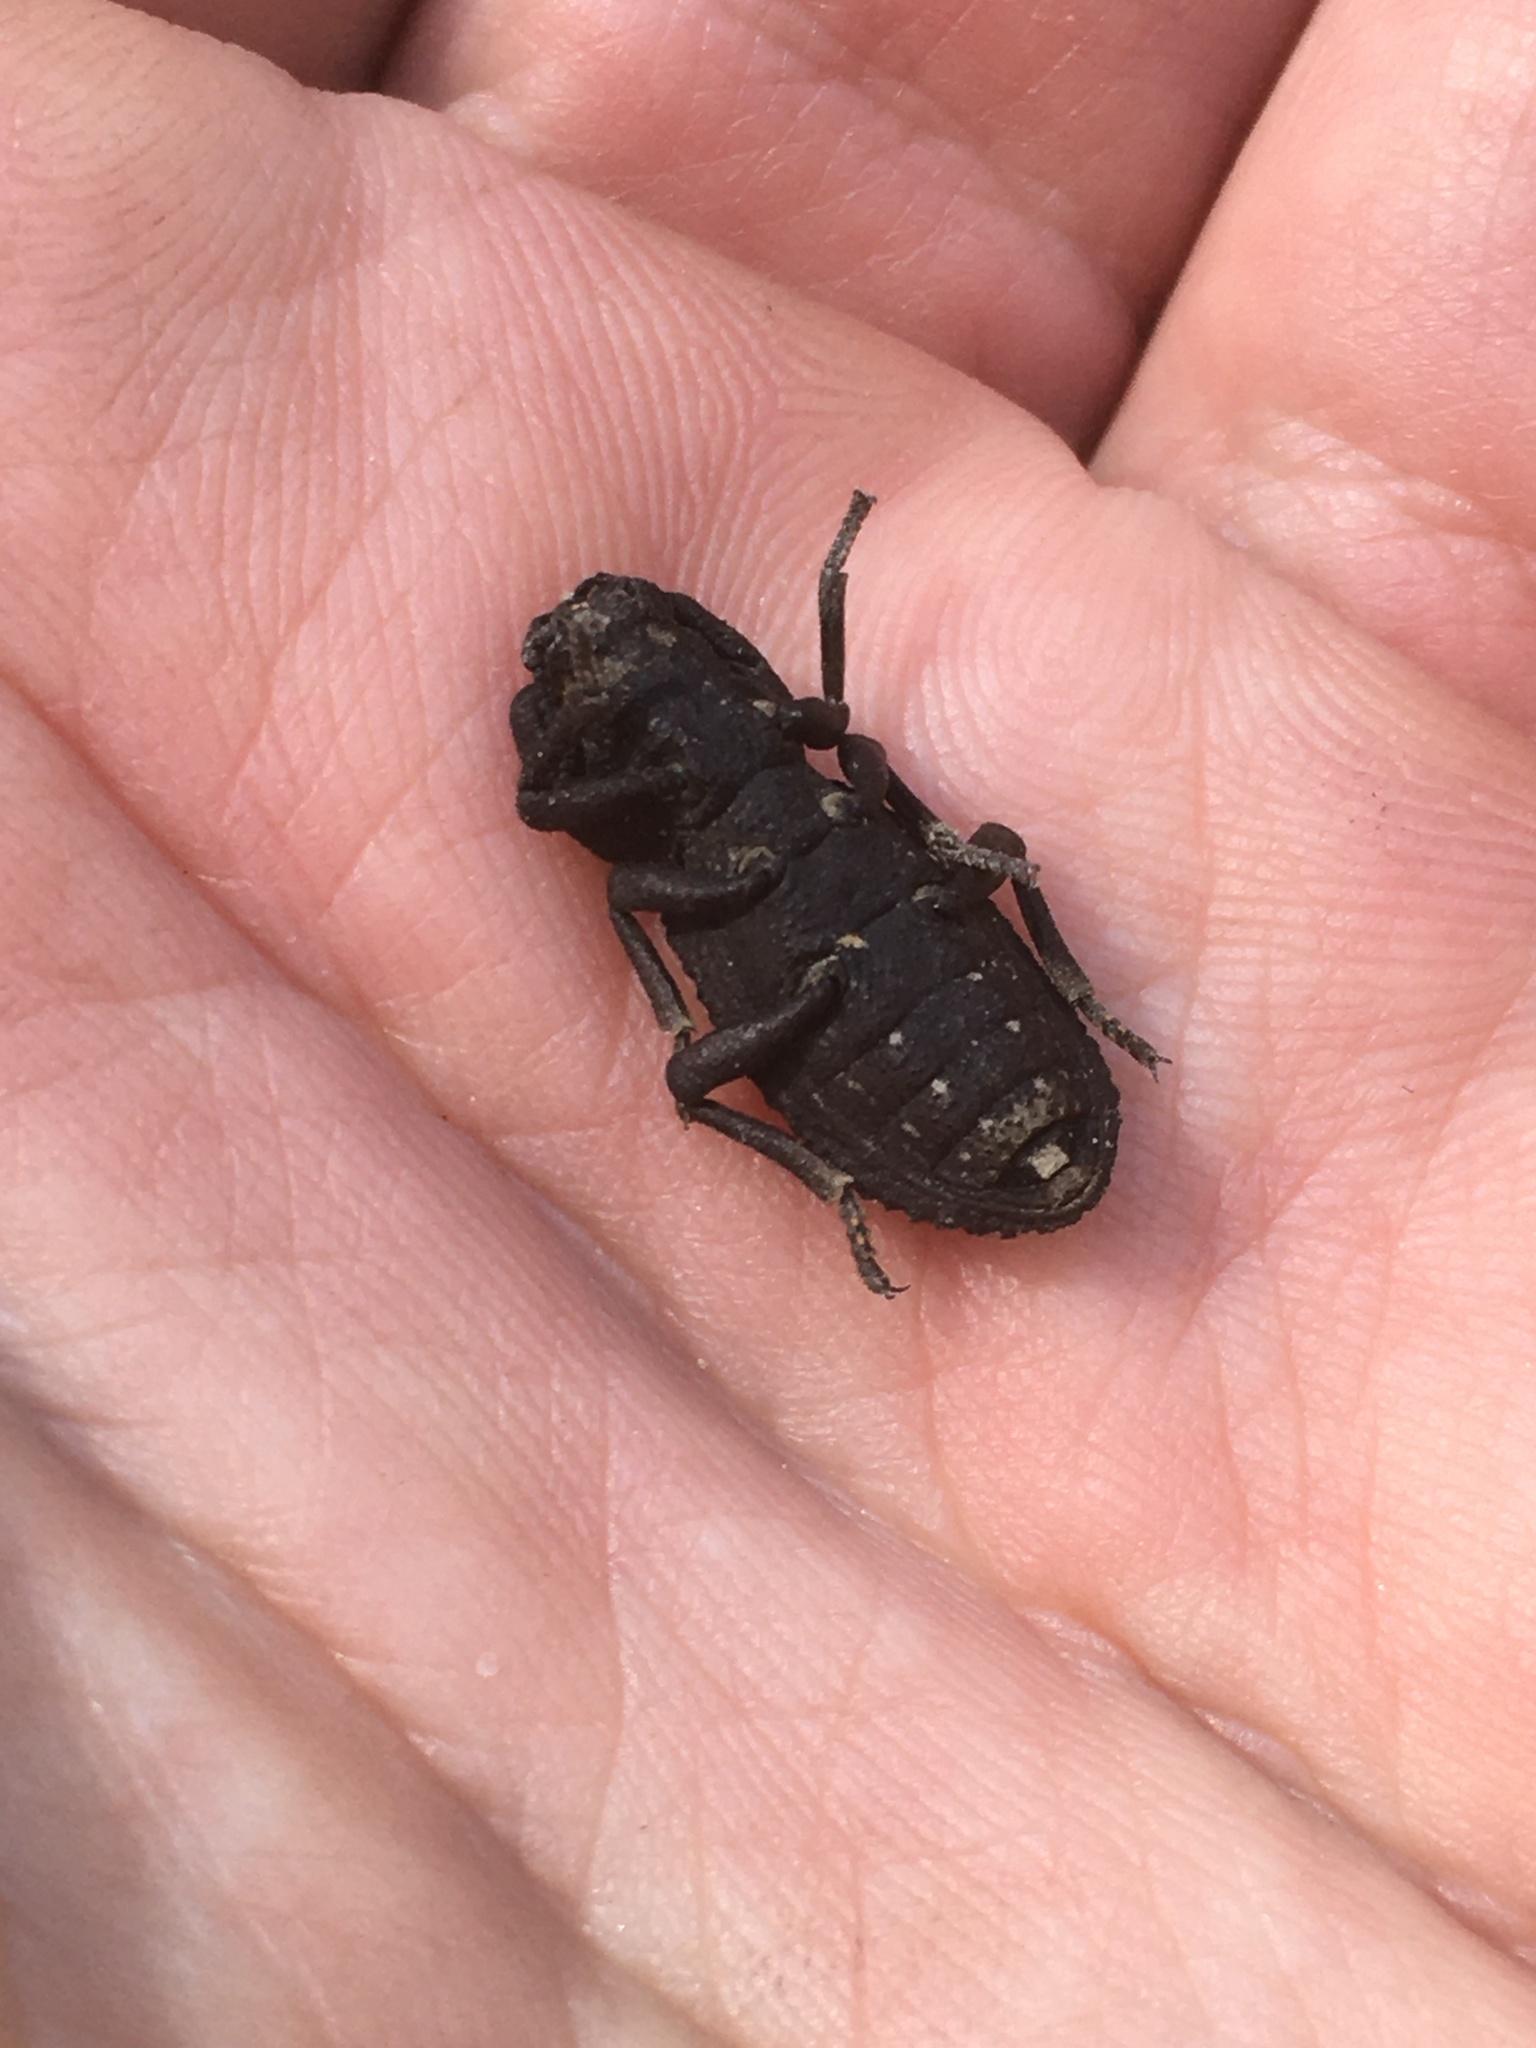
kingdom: Animalia
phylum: Arthropoda
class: Insecta
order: Coleoptera
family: Zopheridae
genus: Phloeodes
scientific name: Phloeodes diabolicus
